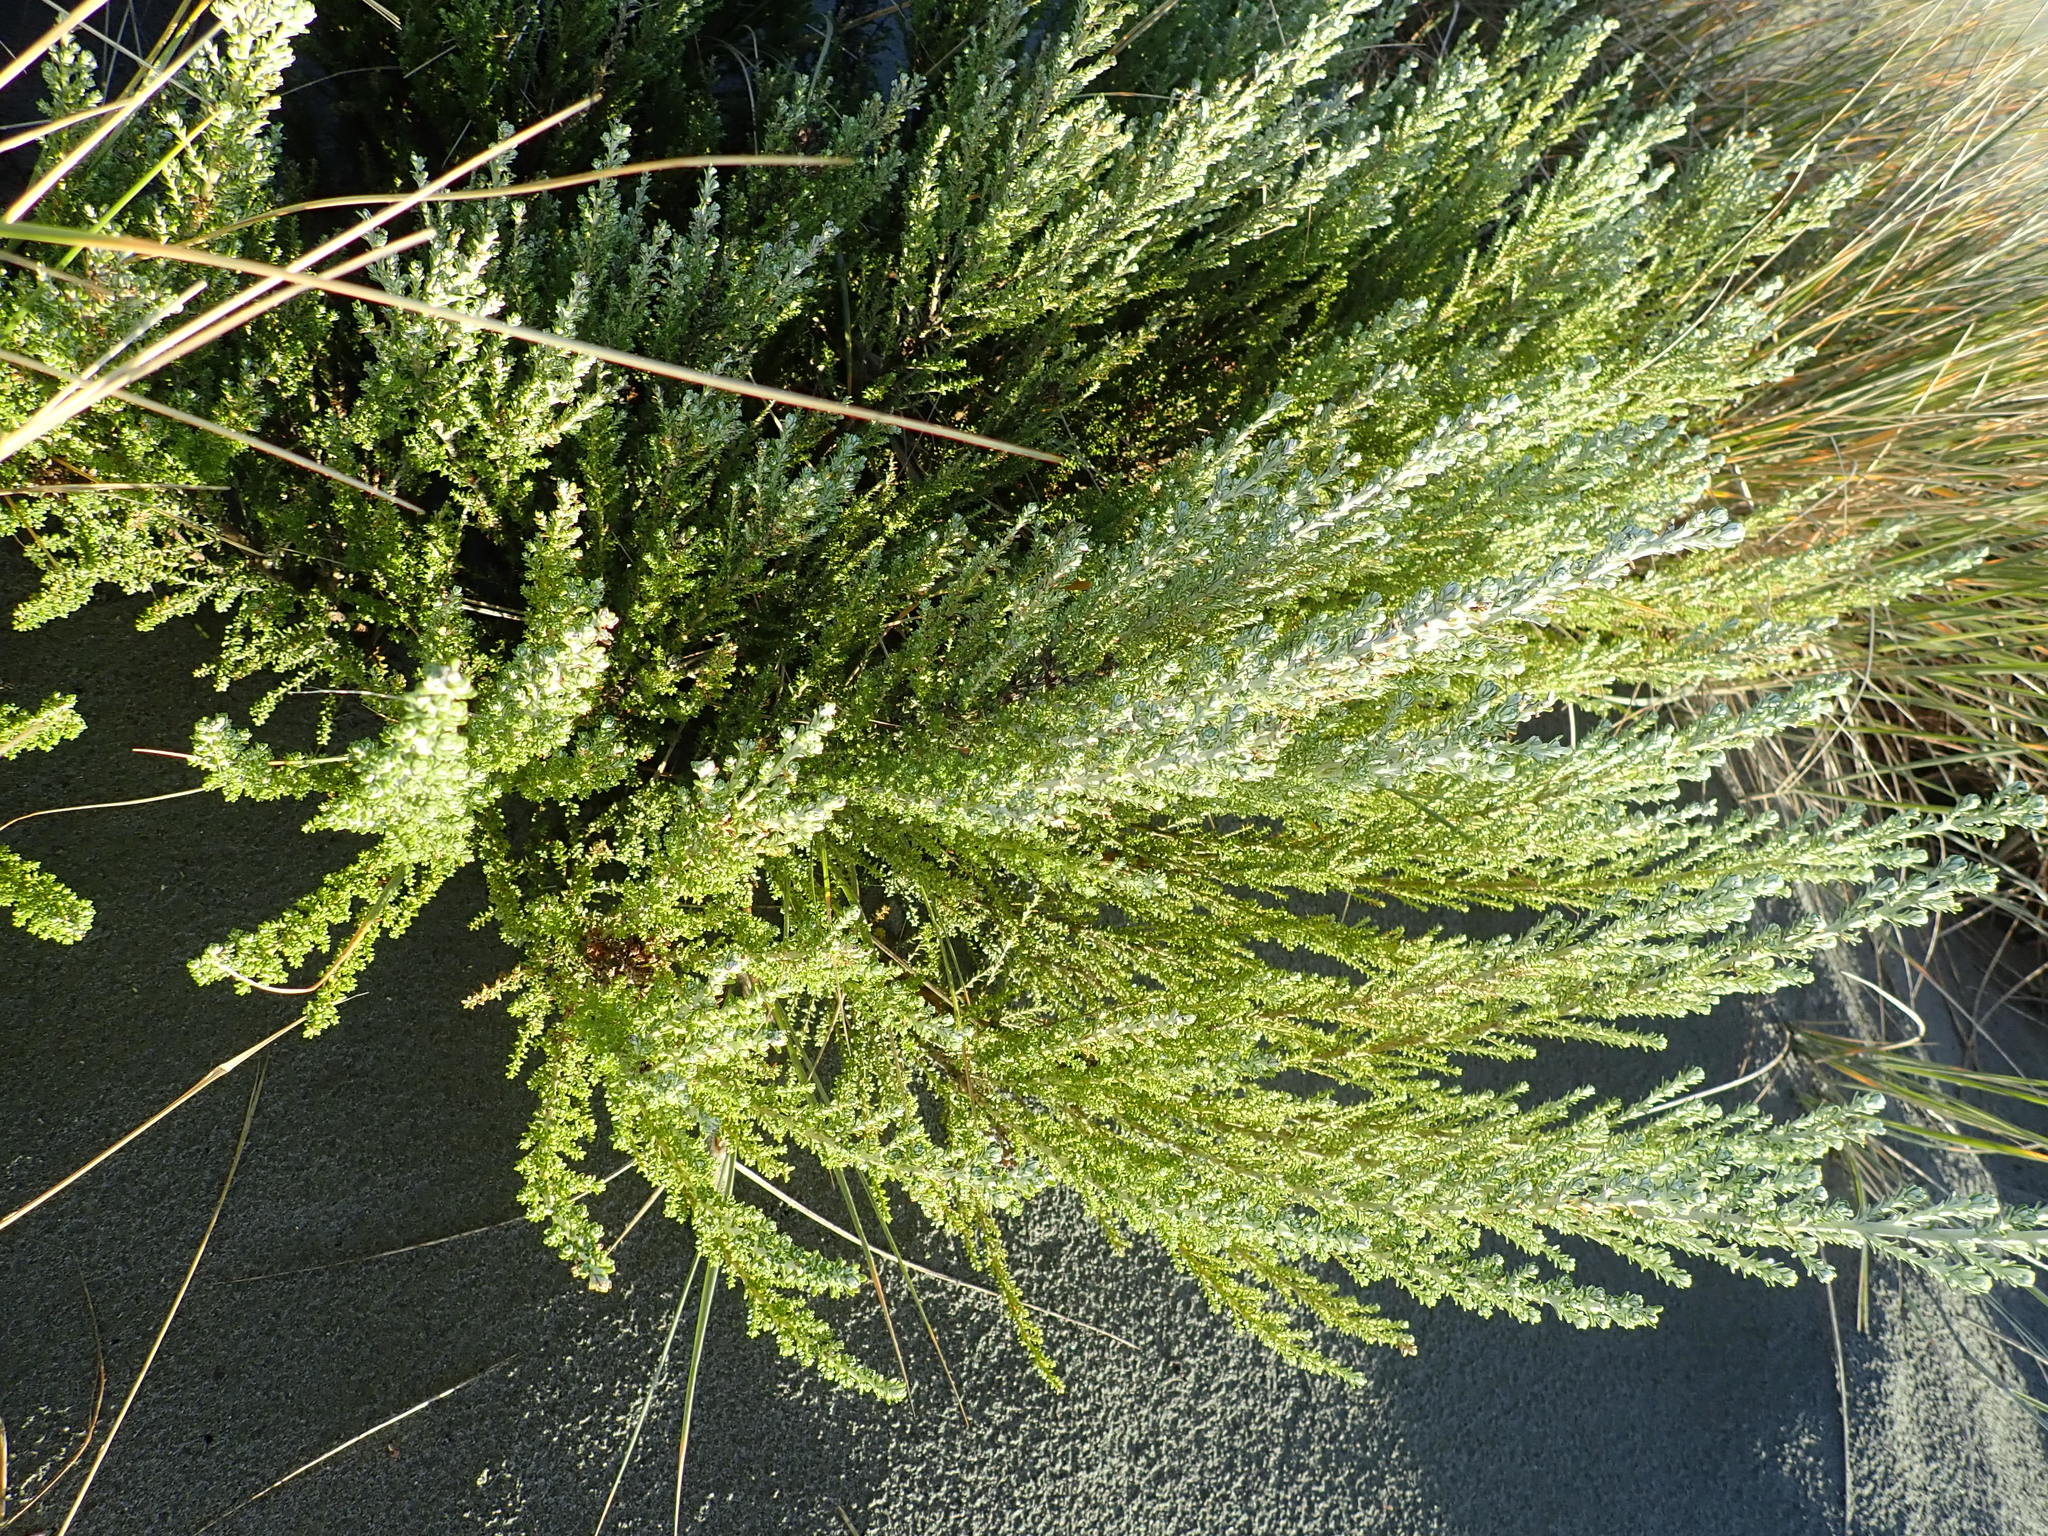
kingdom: Plantae
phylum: Tracheophyta
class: Magnoliopsida
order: Asterales
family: Asteraceae
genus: Ozothamnus
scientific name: Ozothamnus leptophyllus
